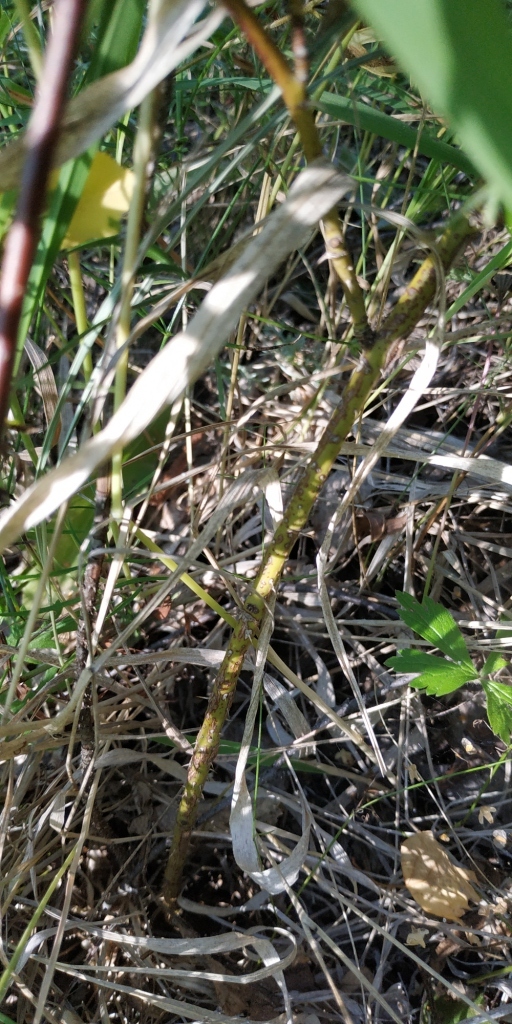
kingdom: Plantae
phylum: Tracheophyta
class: Magnoliopsida
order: Rosales
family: Rosaceae
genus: Rosa
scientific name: Rosa acicularis
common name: Prickly rose
